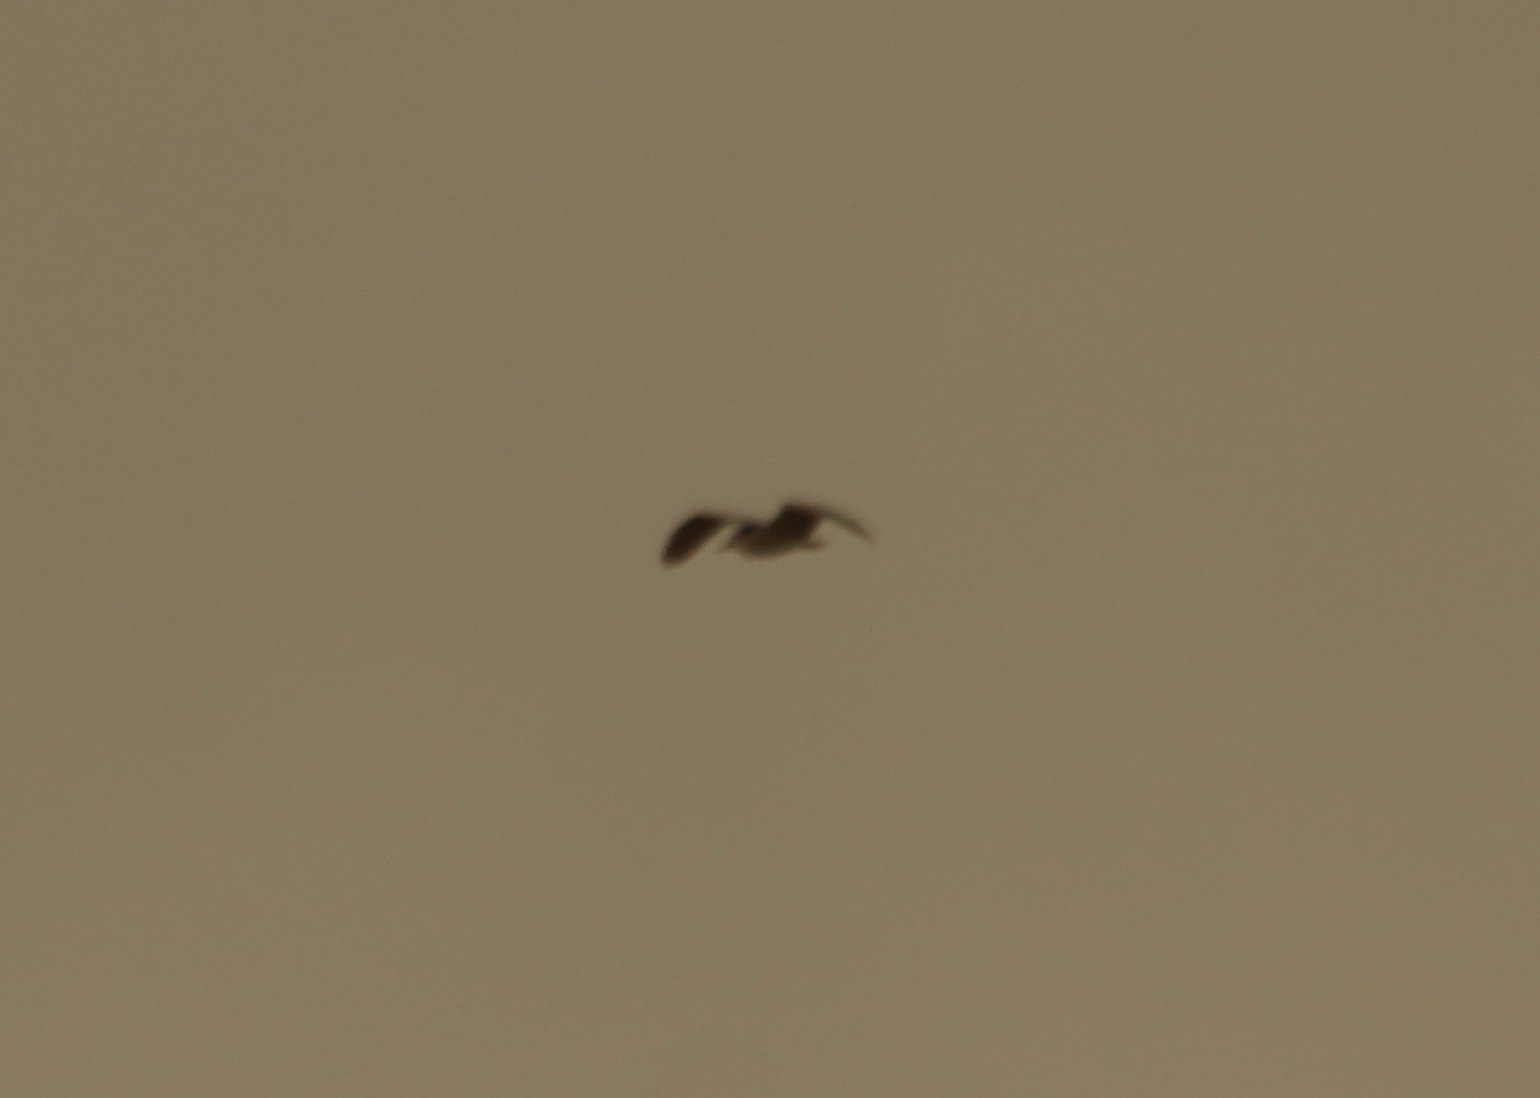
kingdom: Animalia
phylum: Chordata
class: Aves
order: Pelecaniformes
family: Ardeidae
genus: Nycticorax
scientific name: Nycticorax nycticorax
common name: Black-crowned night heron
